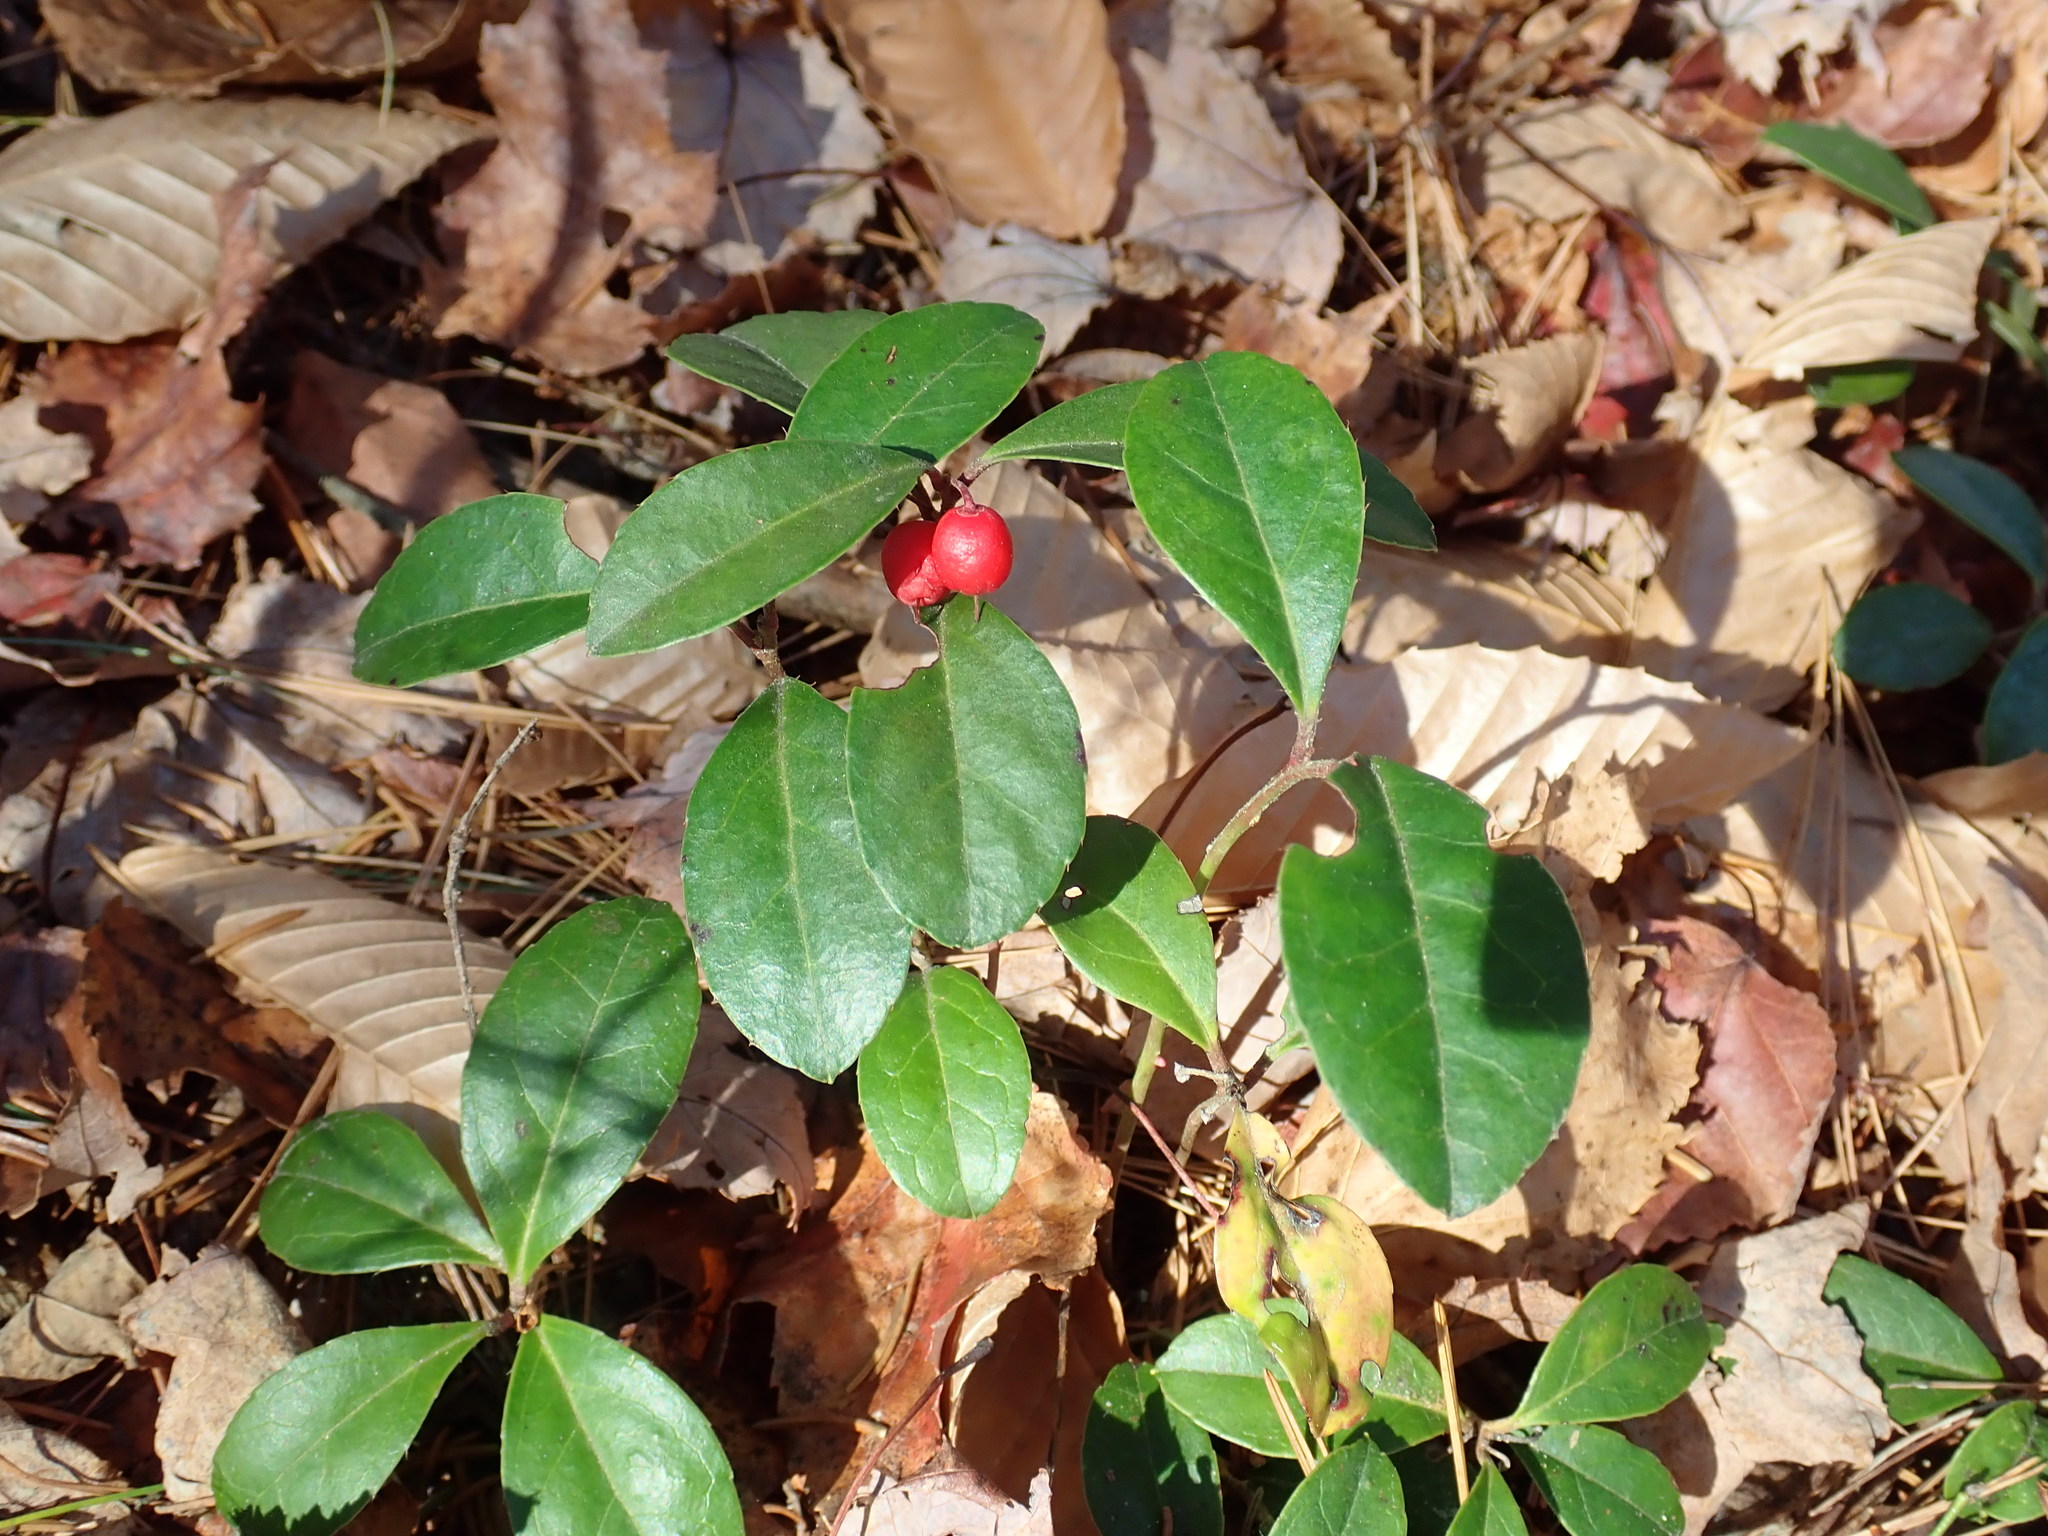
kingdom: Plantae
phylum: Tracheophyta
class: Magnoliopsida
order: Ericales
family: Ericaceae
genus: Gaultheria
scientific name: Gaultheria procumbens
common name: Checkerberry
